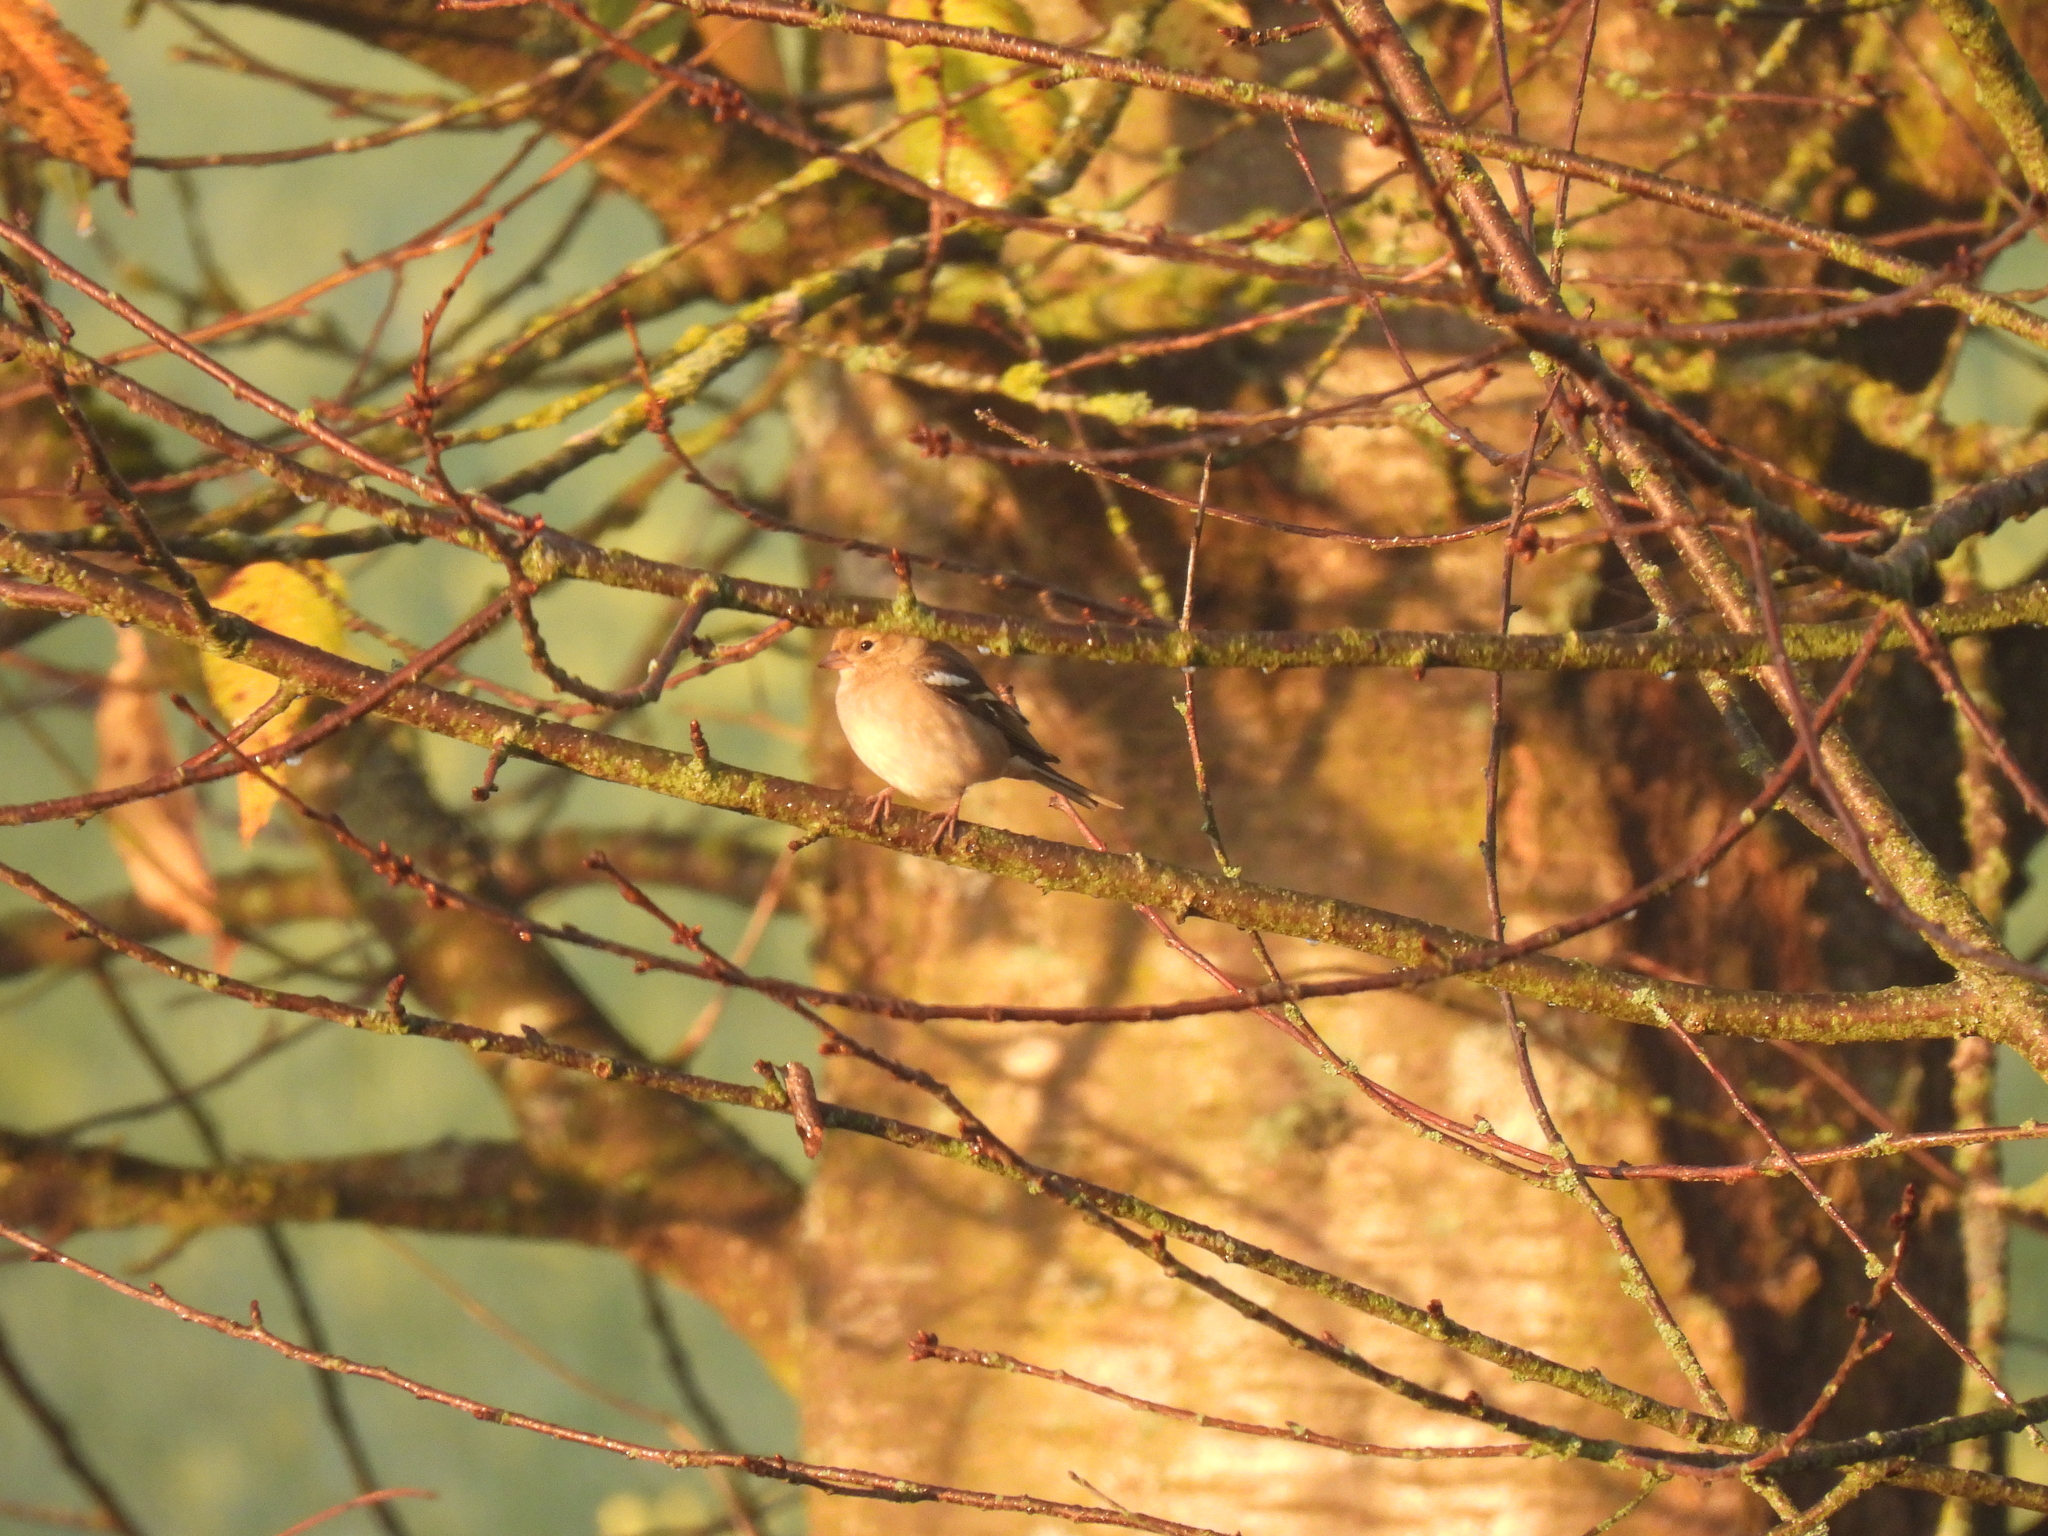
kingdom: Animalia
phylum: Chordata
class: Aves
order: Passeriformes
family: Fringillidae
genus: Fringilla
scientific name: Fringilla coelebs
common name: Common chaffinch
